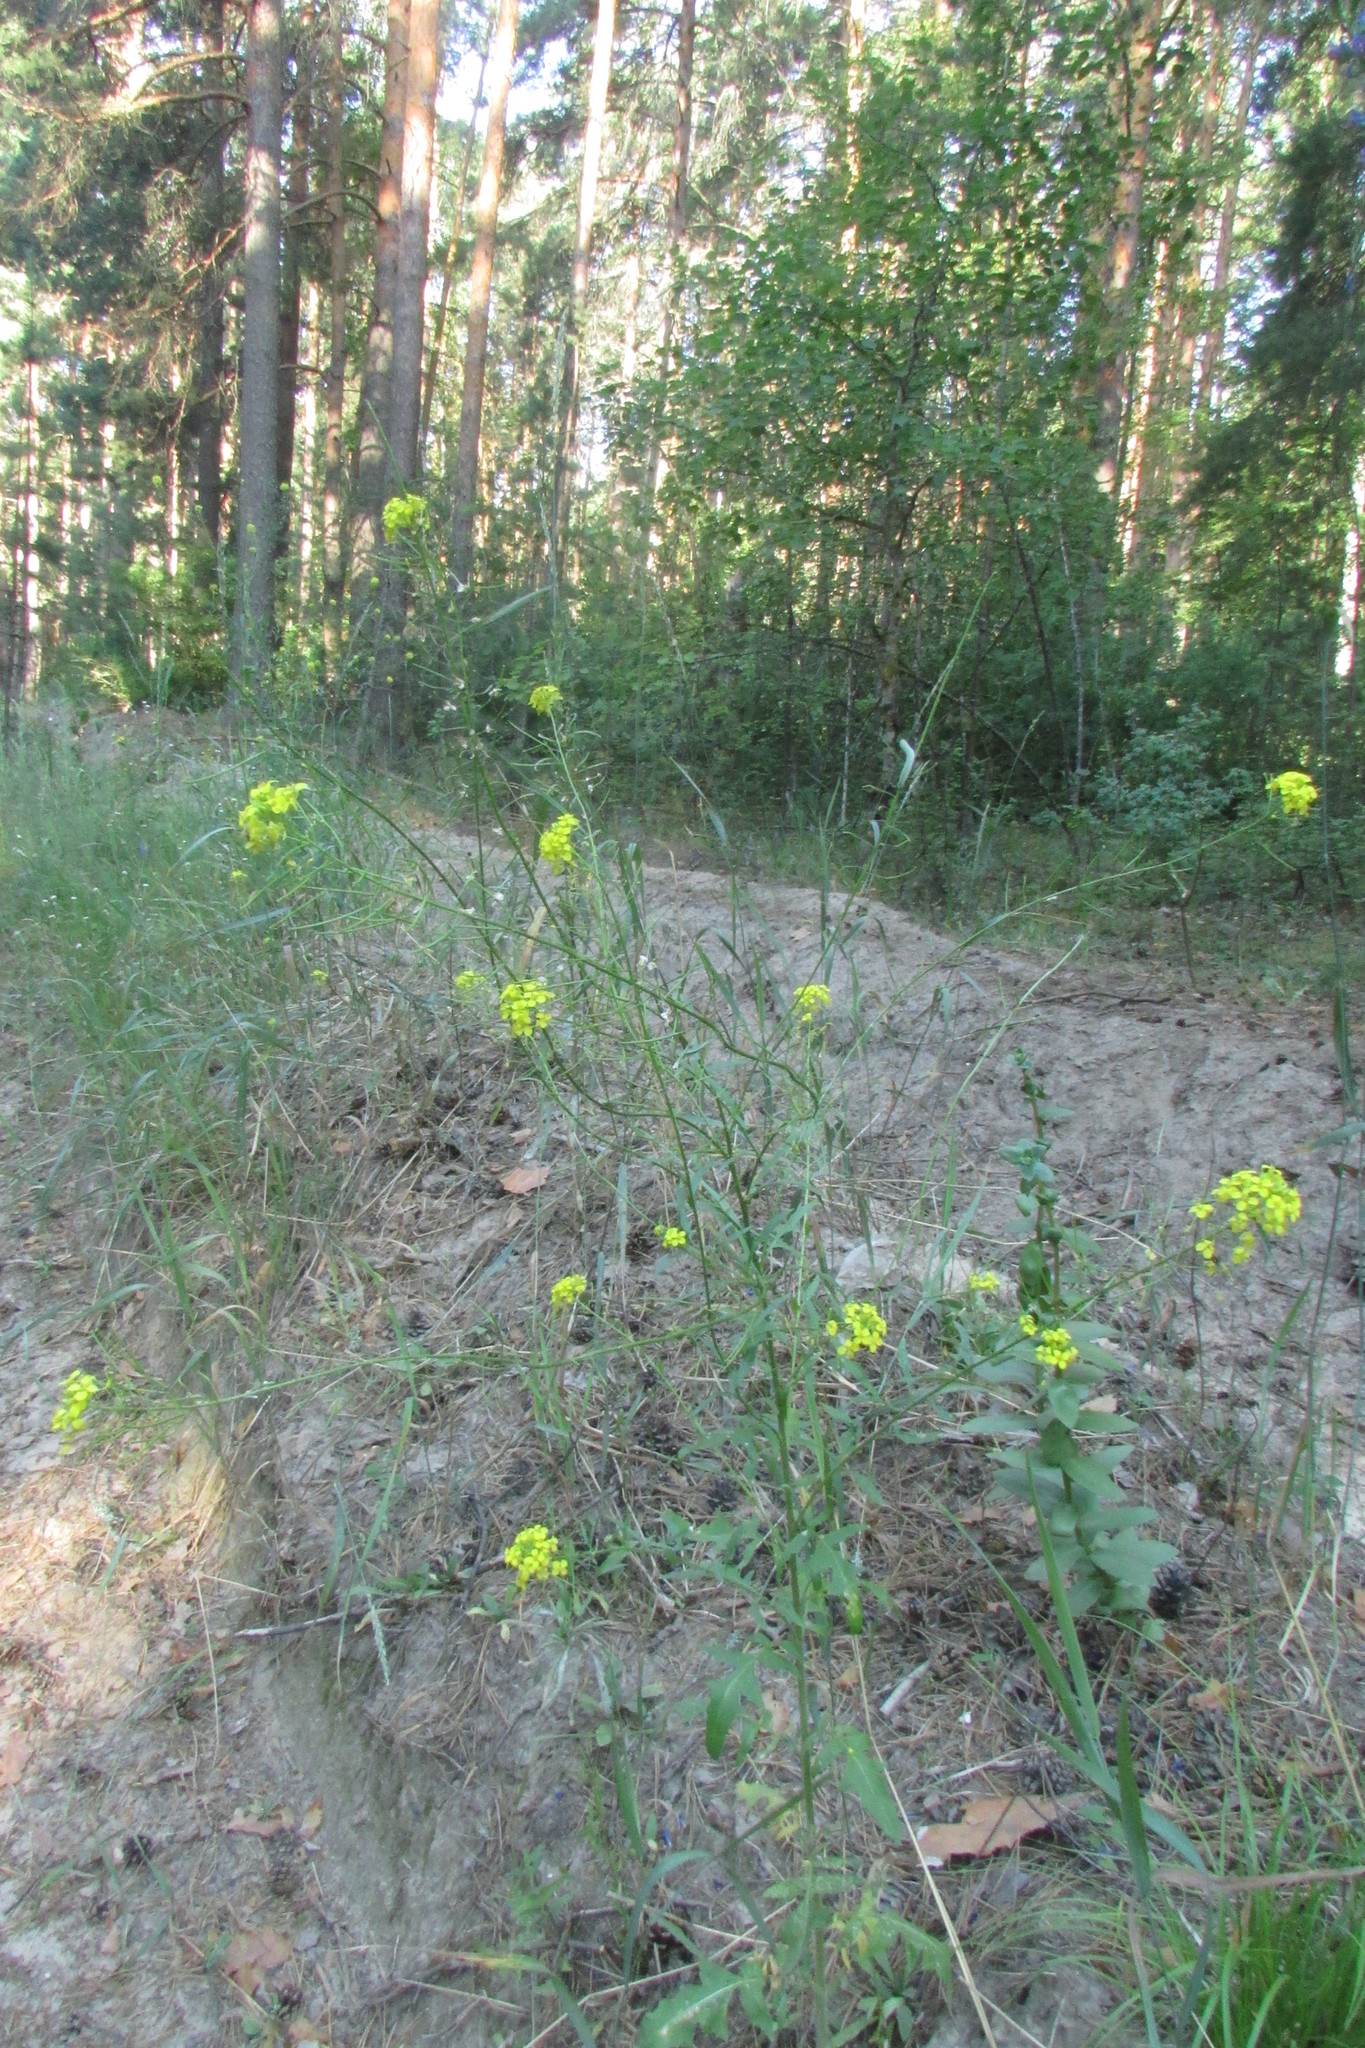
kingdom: Plantae
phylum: Tracheophyta
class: Magnoliopsida
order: Brassicales
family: Brassicaceae
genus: Sisymbrium
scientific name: Sisymbrium loeselii
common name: False london-rocket
